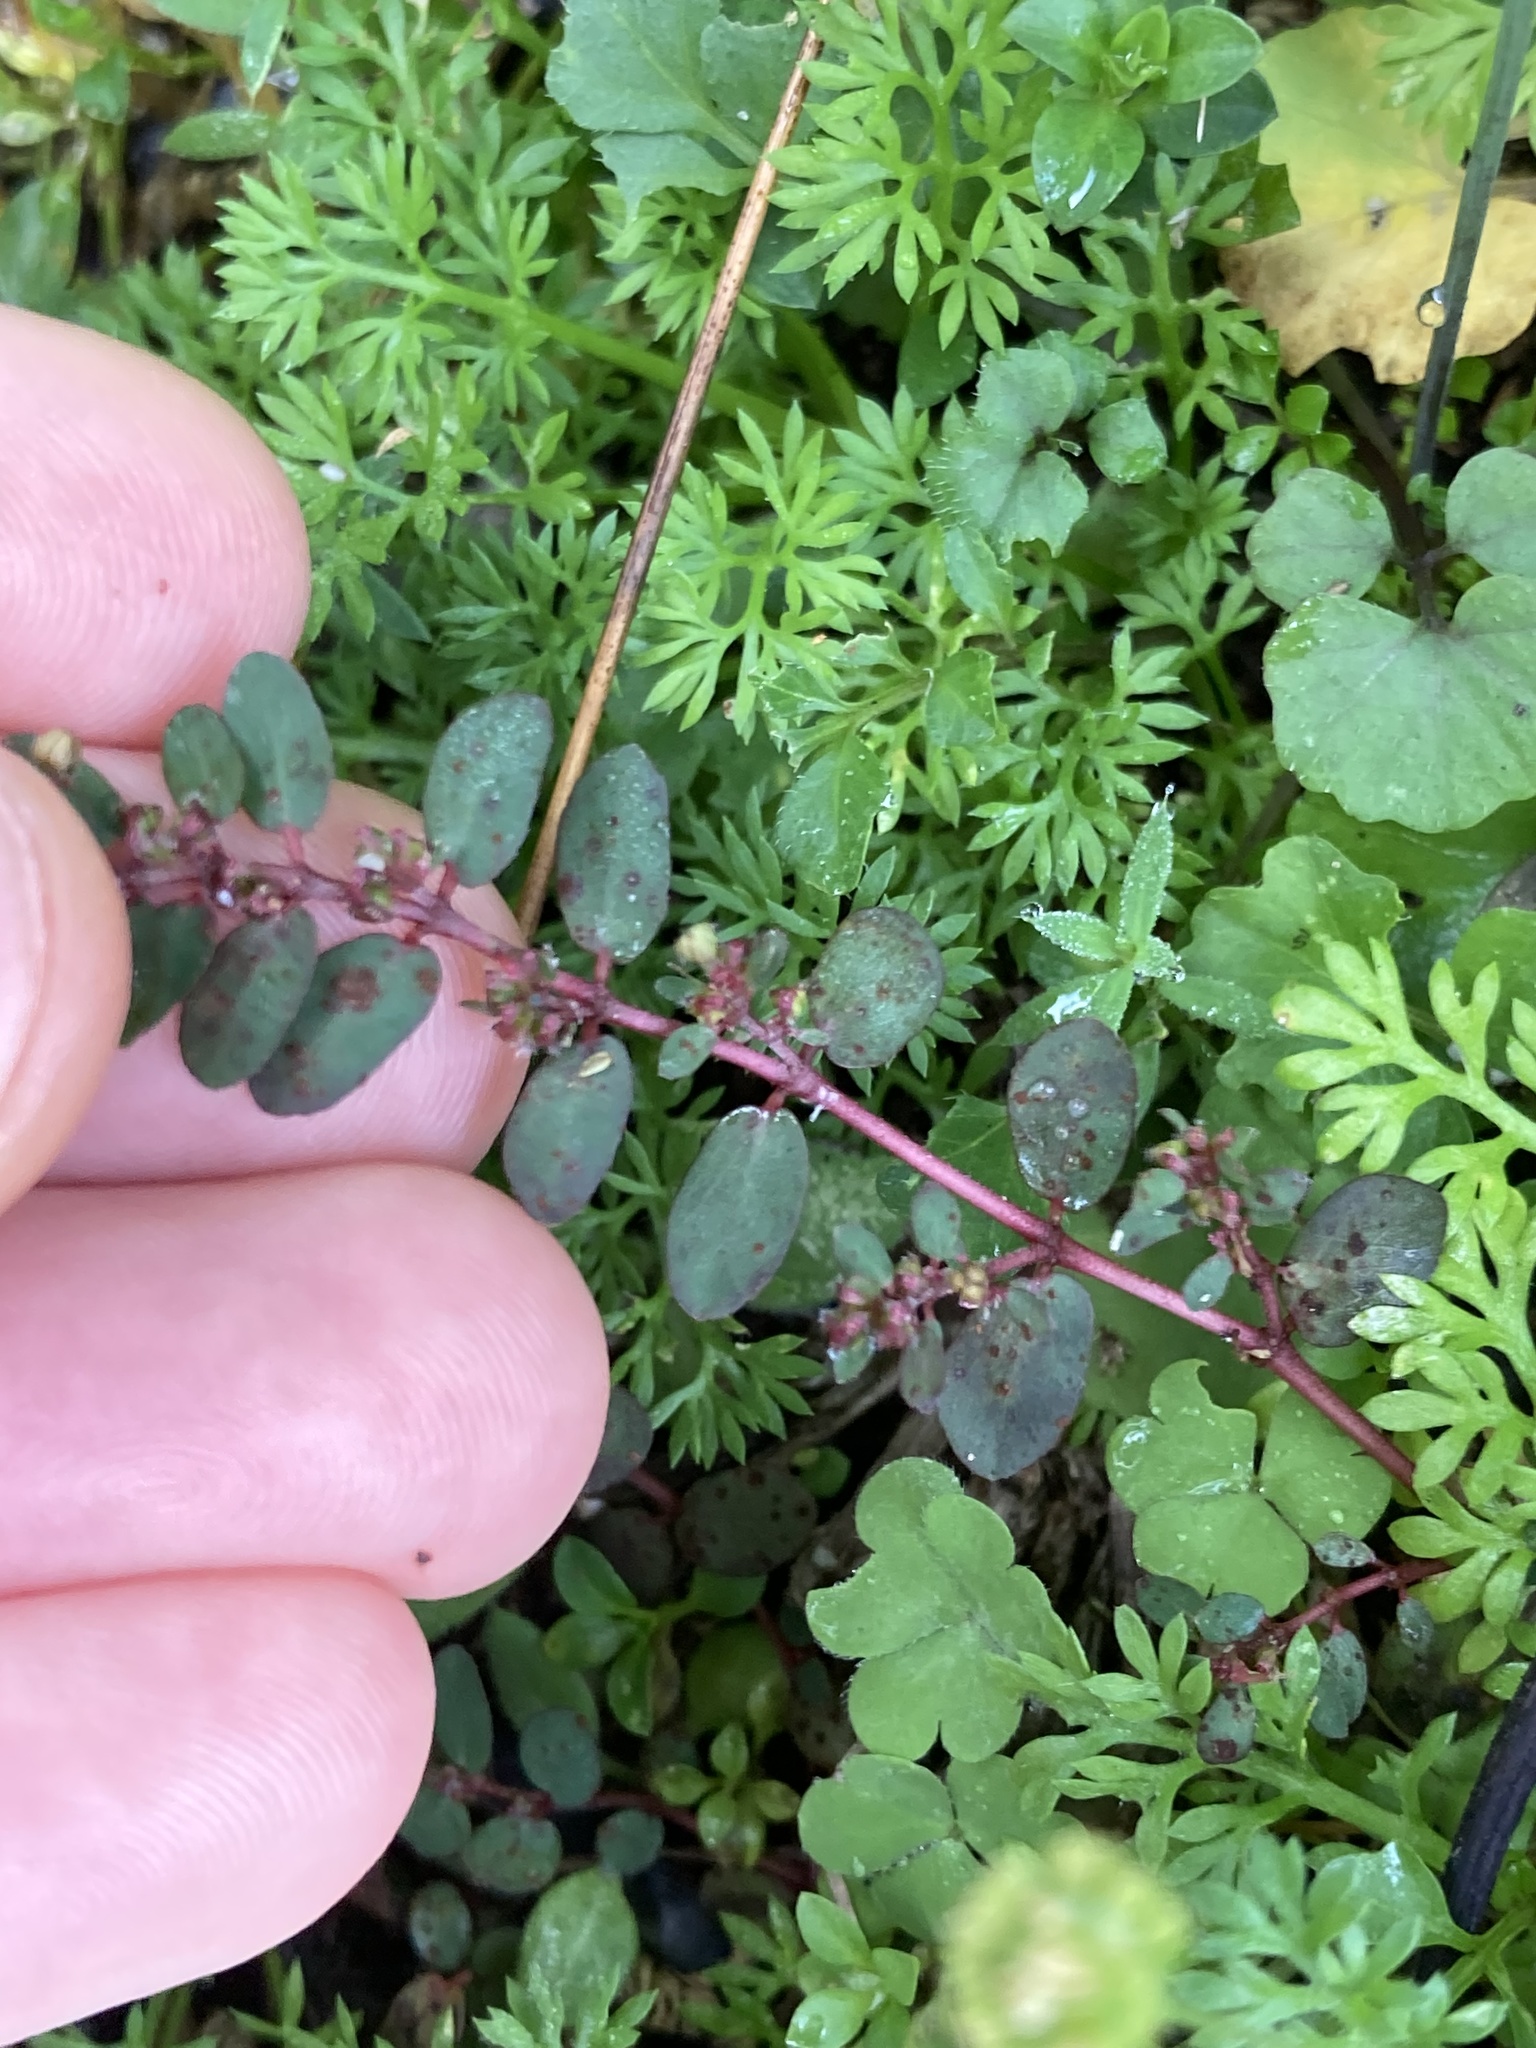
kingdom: Plantae
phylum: Tracheophyta
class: Magnoliopsida
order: Malpighiales
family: Euphorbiaceae
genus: Euphorbia
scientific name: Euphorbia prostrata
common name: Prostrate sandmat
